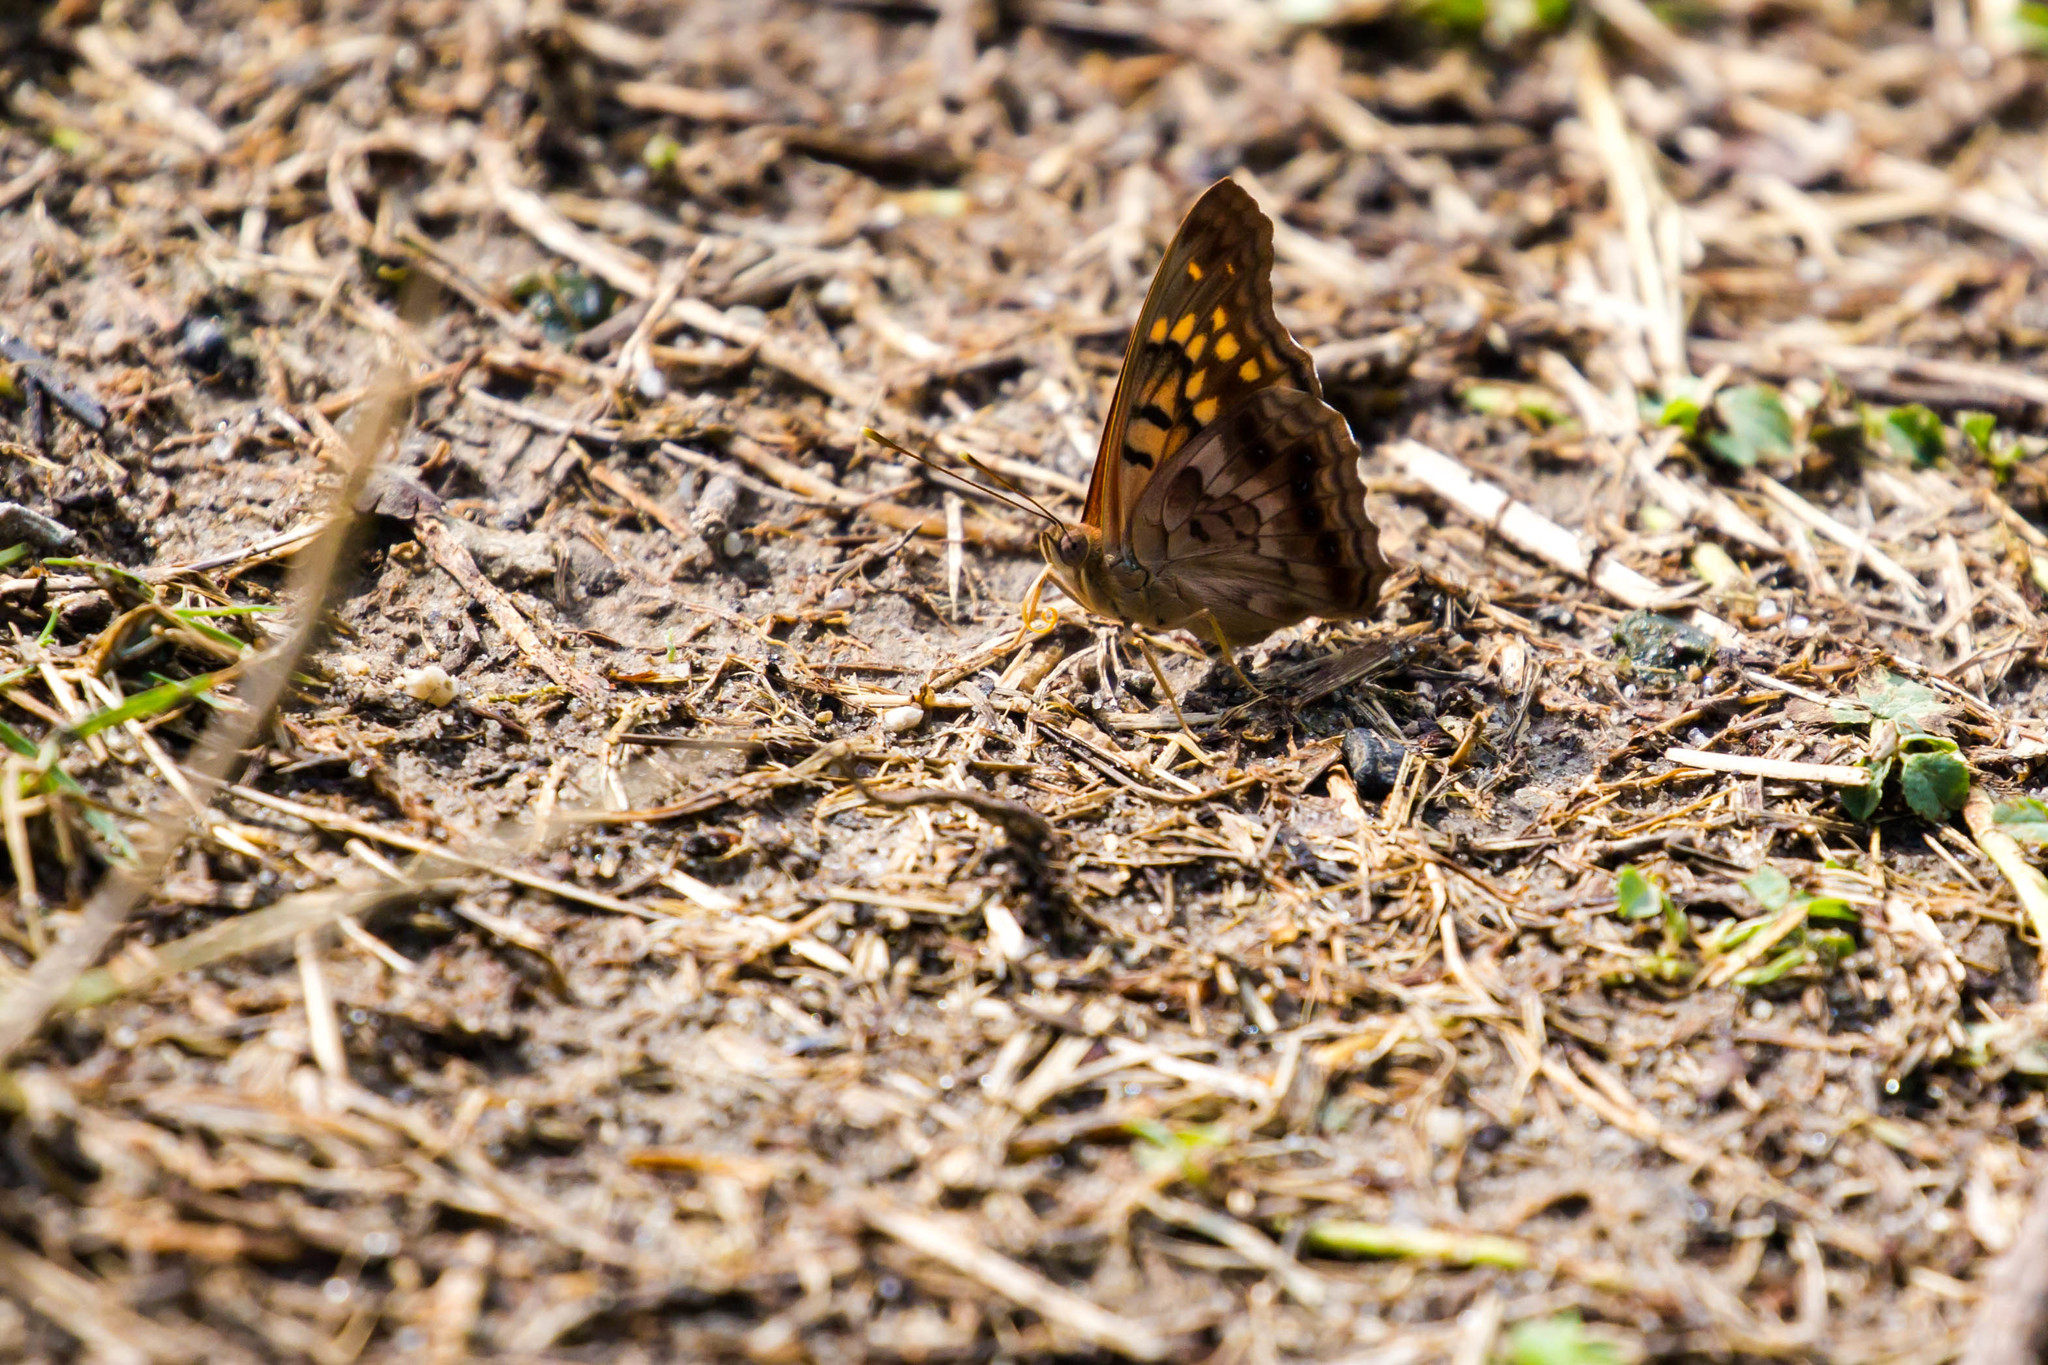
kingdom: Animalia
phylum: Arthropoda
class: Insecta
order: Lepidoptera
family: Nymphalidae
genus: Asterocampa
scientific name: Asterocampa clyton
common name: Tawny emperor
